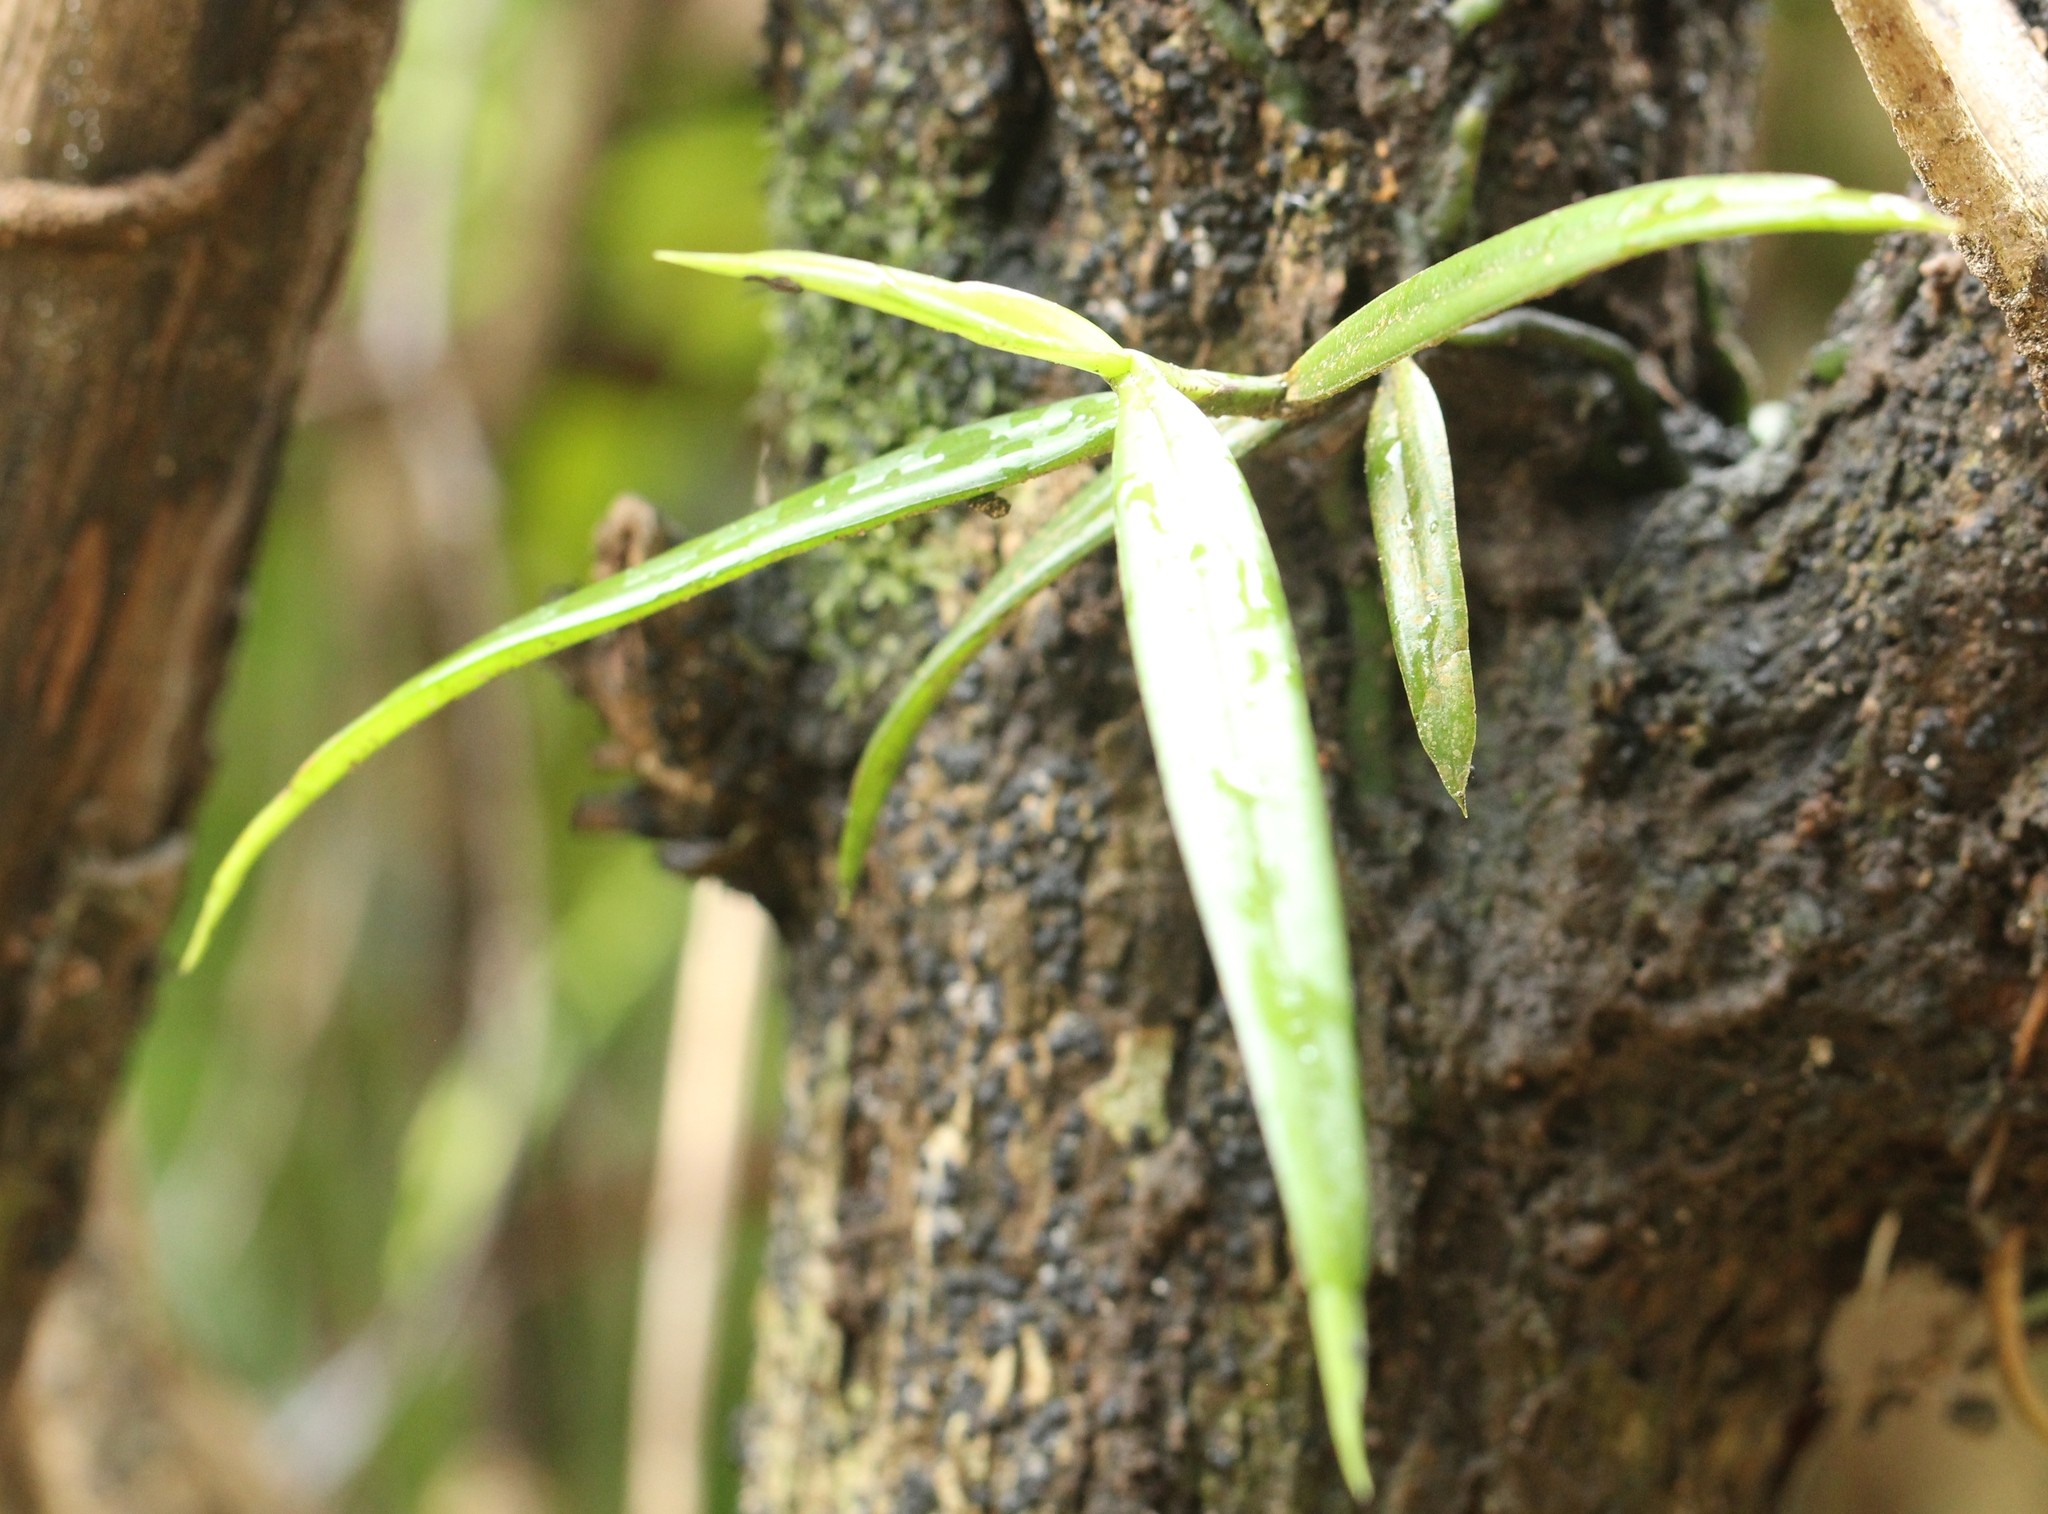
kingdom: Plantae
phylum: Tracheophyta
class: Liliopsida
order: Asparagales
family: Orchidaceae
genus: Cleisostoma
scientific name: Cleisostoma tenuifolium
